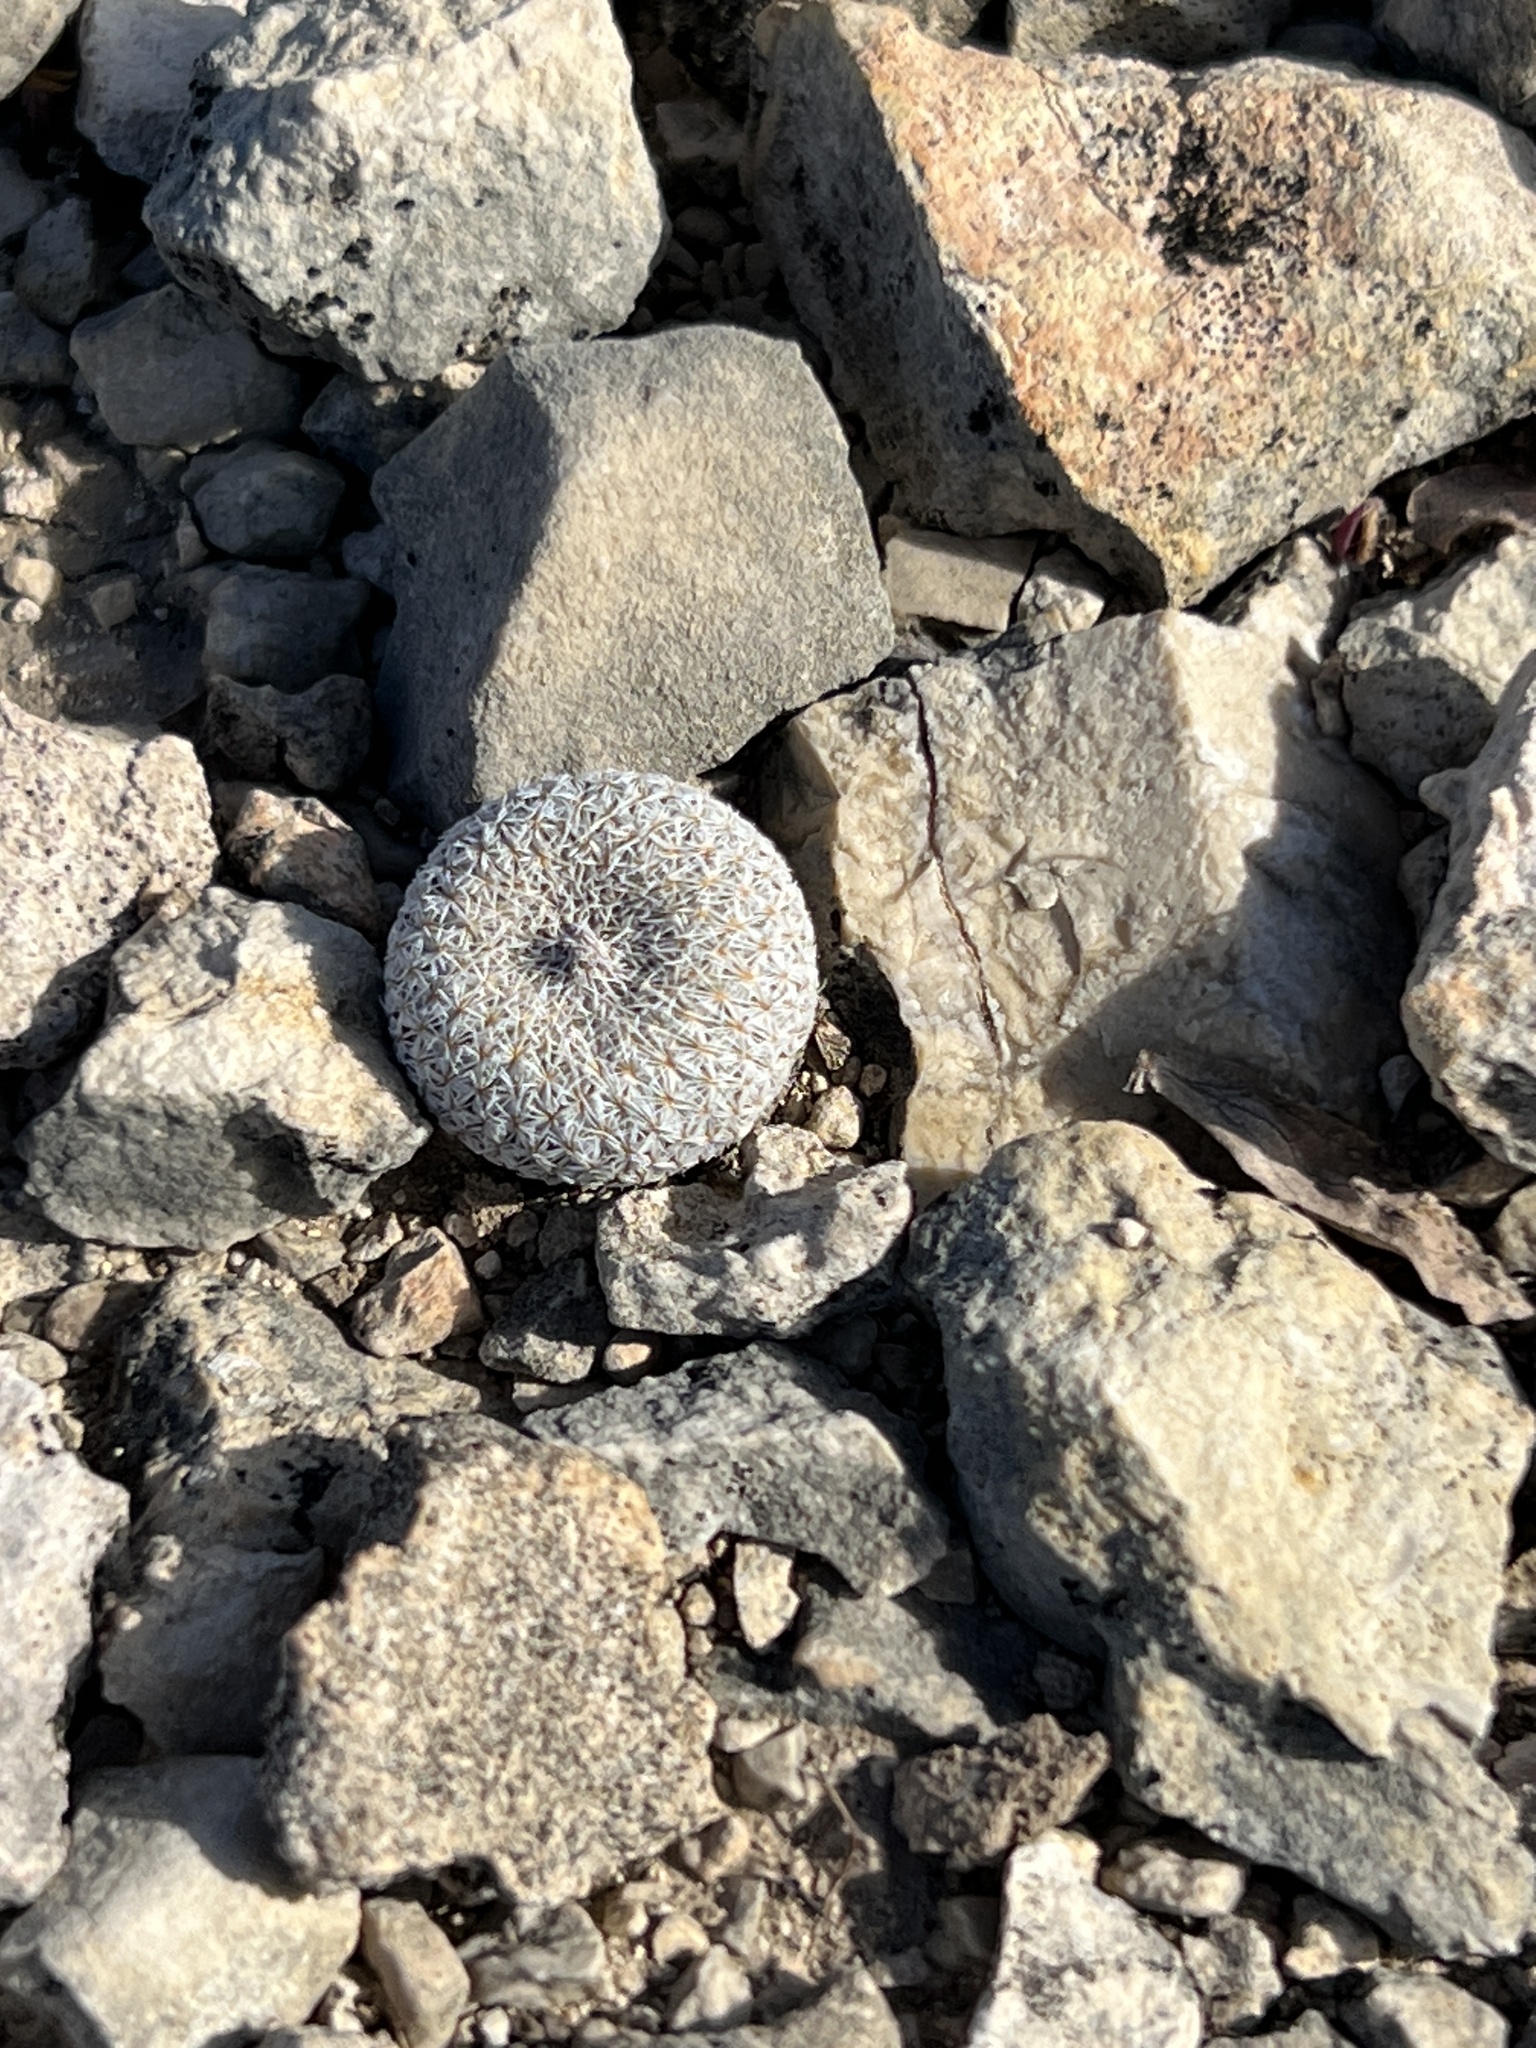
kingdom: Plantae
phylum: Tracheophyta
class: Magnoliopsida
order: Caryophyllales
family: Cactaceae
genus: Epithelantha
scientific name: Epithelantha micromeris
